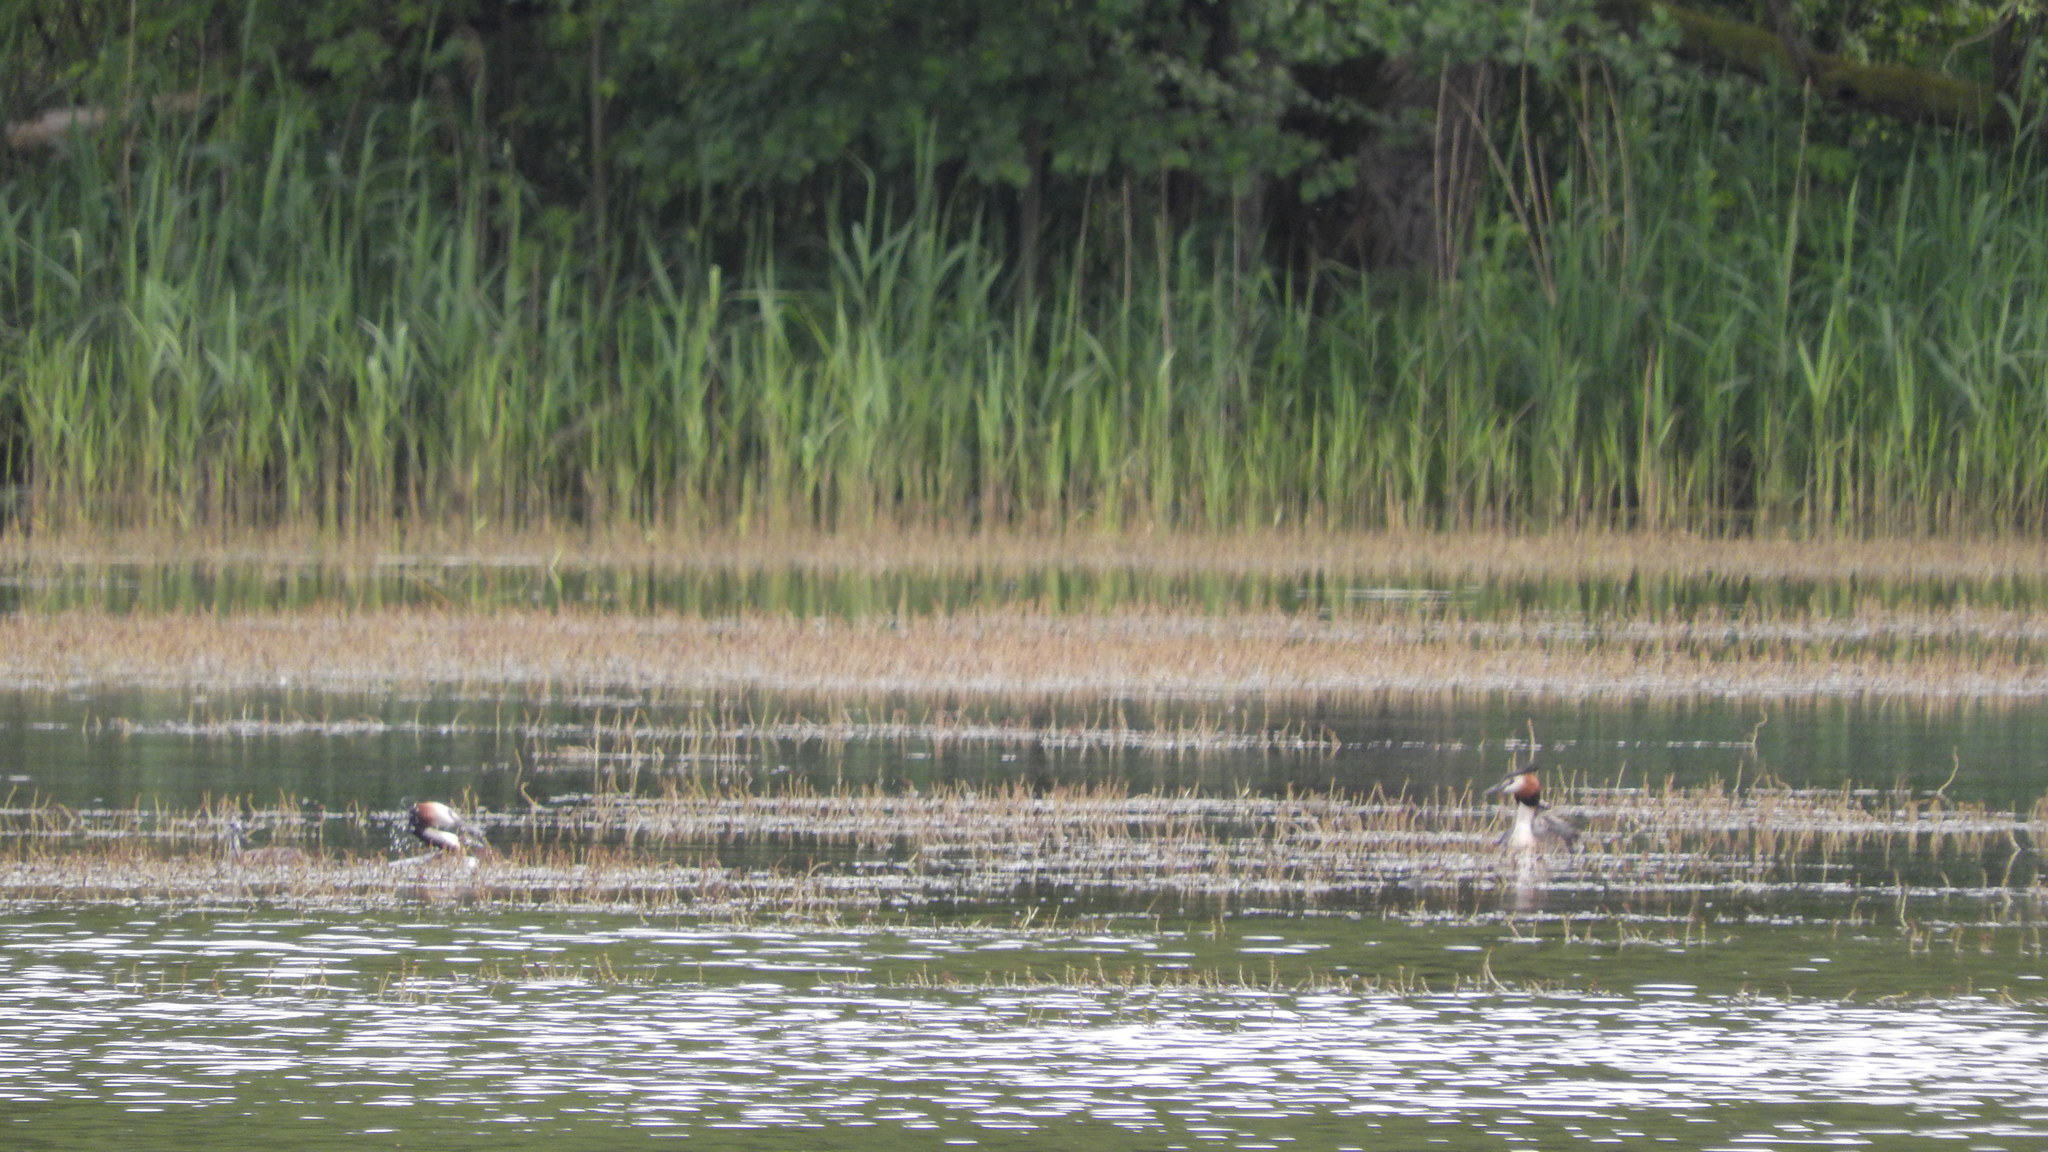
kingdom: Animalia
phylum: Chordata
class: Aves
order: Podicipediformes
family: Podicipedidae
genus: Podiceps
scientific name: Podiceps cristatus
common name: Great crested grebe
